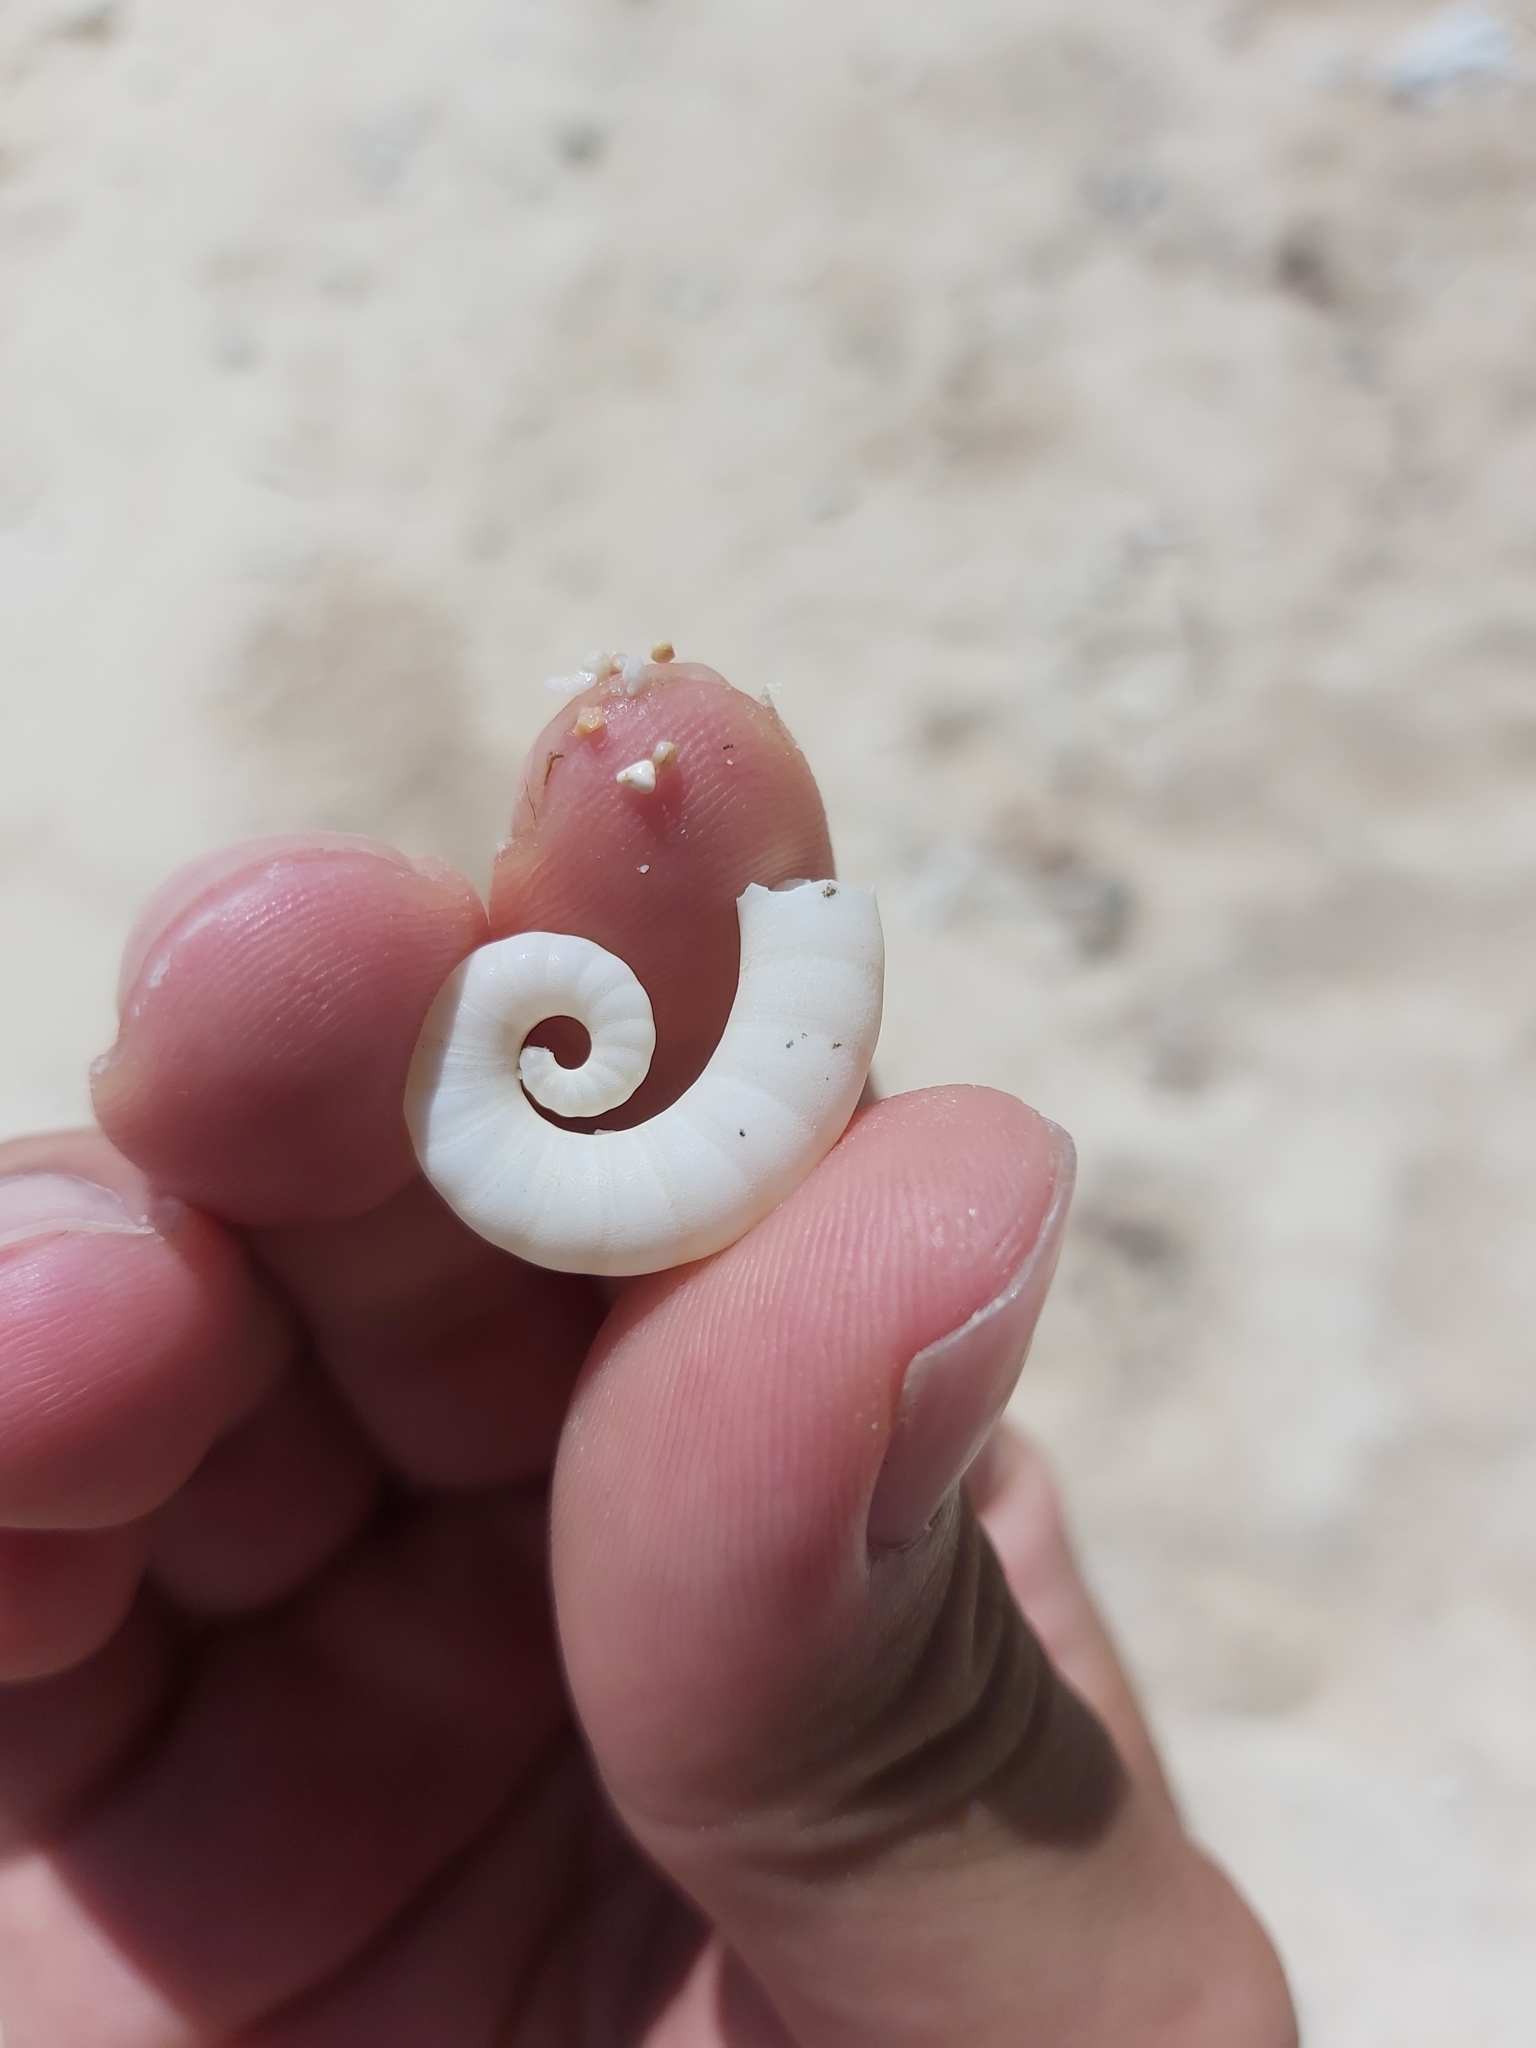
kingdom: Animalia
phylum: Mollusca
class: Cephalopoda
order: Spirulida
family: Spirulidae
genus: Spirula
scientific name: Spirula spirula
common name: Ram's horn squid
